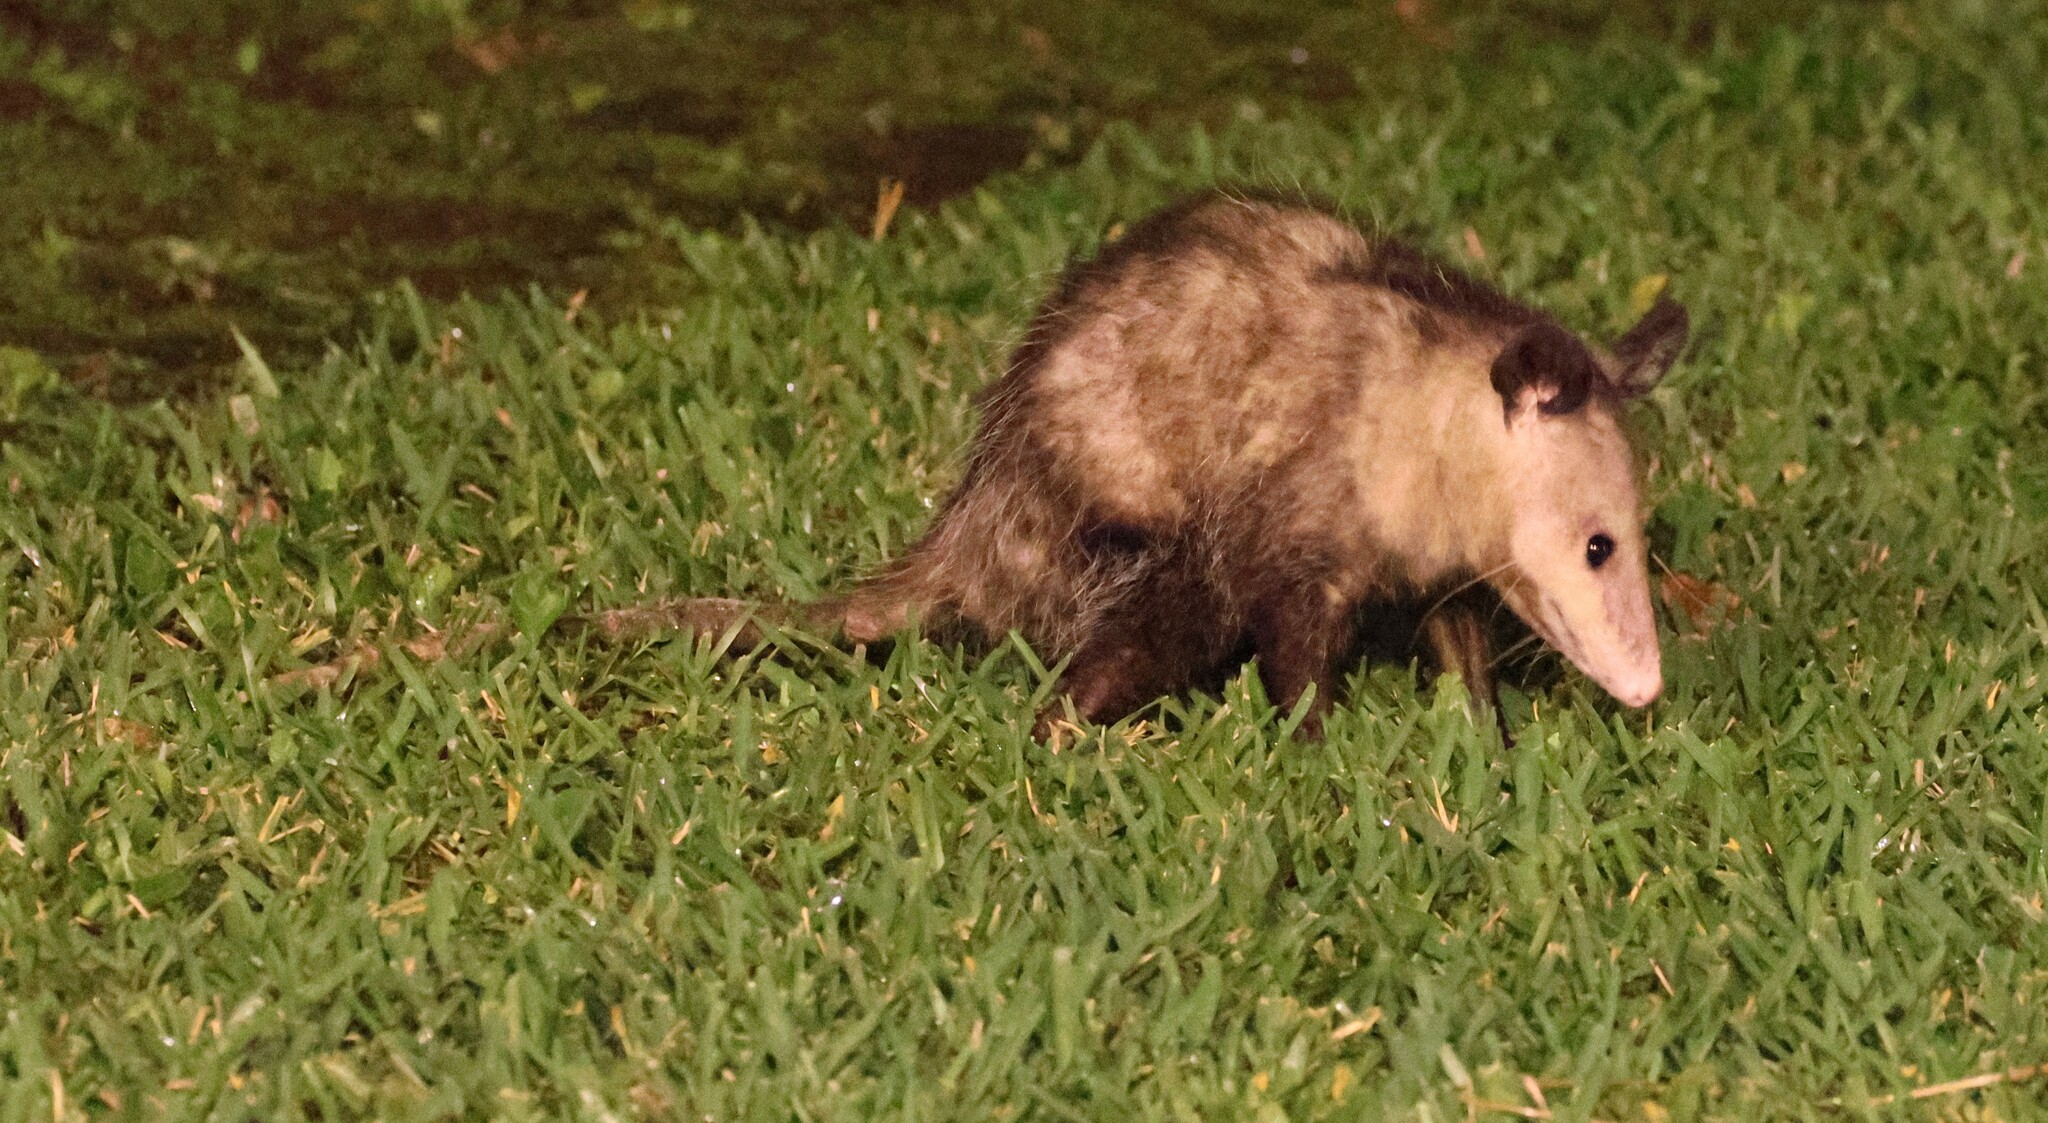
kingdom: Animalia
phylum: Chordata
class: Mammalia
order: Didelphimorphia
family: Didelphidae
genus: Didelphis
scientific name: Didelphis
